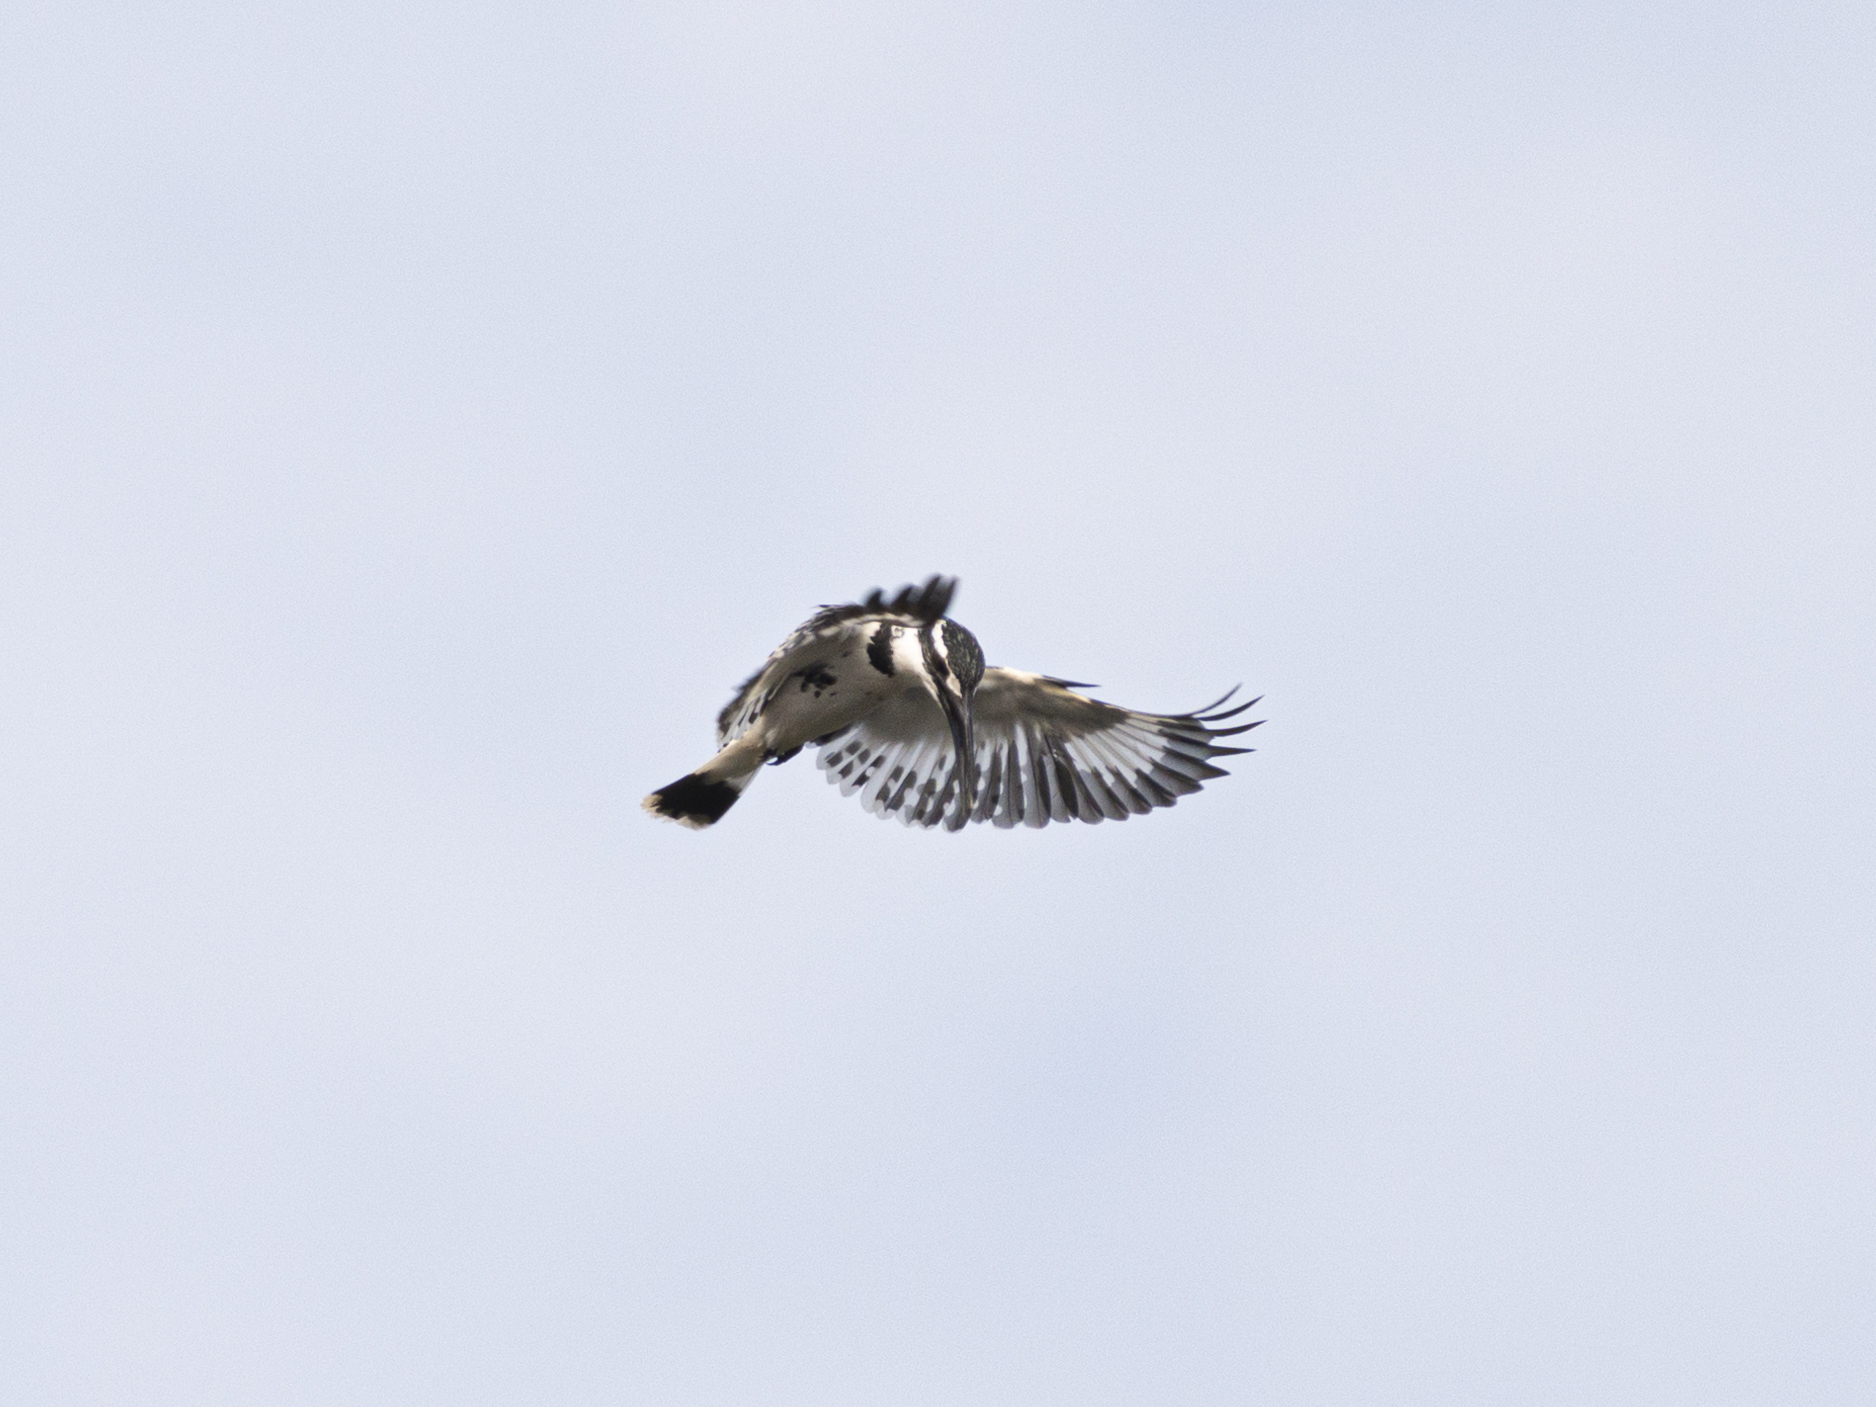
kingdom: Animalia
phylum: Chordata
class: Aves
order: Coraciiformes
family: Alcedinidae
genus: Ceryle
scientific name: Ceryle rudis
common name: Pied kingfisher
